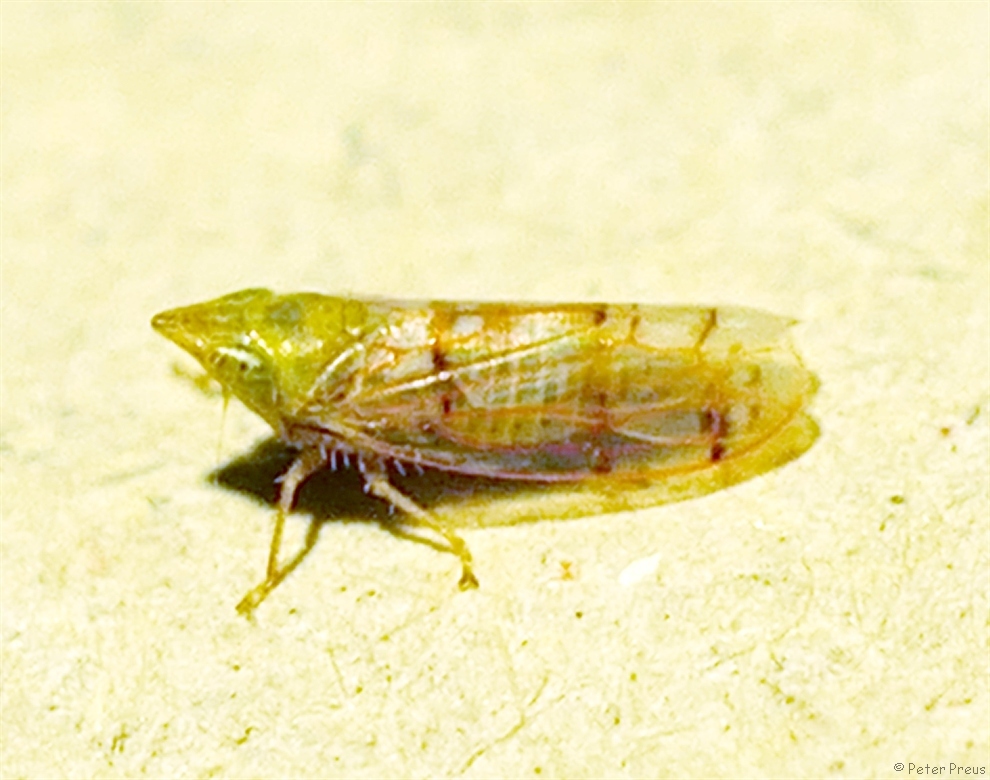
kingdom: Animalia
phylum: Arthropoda
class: Insecta
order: Hemiptera
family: Cicadellidae
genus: Japananus
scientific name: Japananus hyalinus
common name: The japanese maple leafhopper
